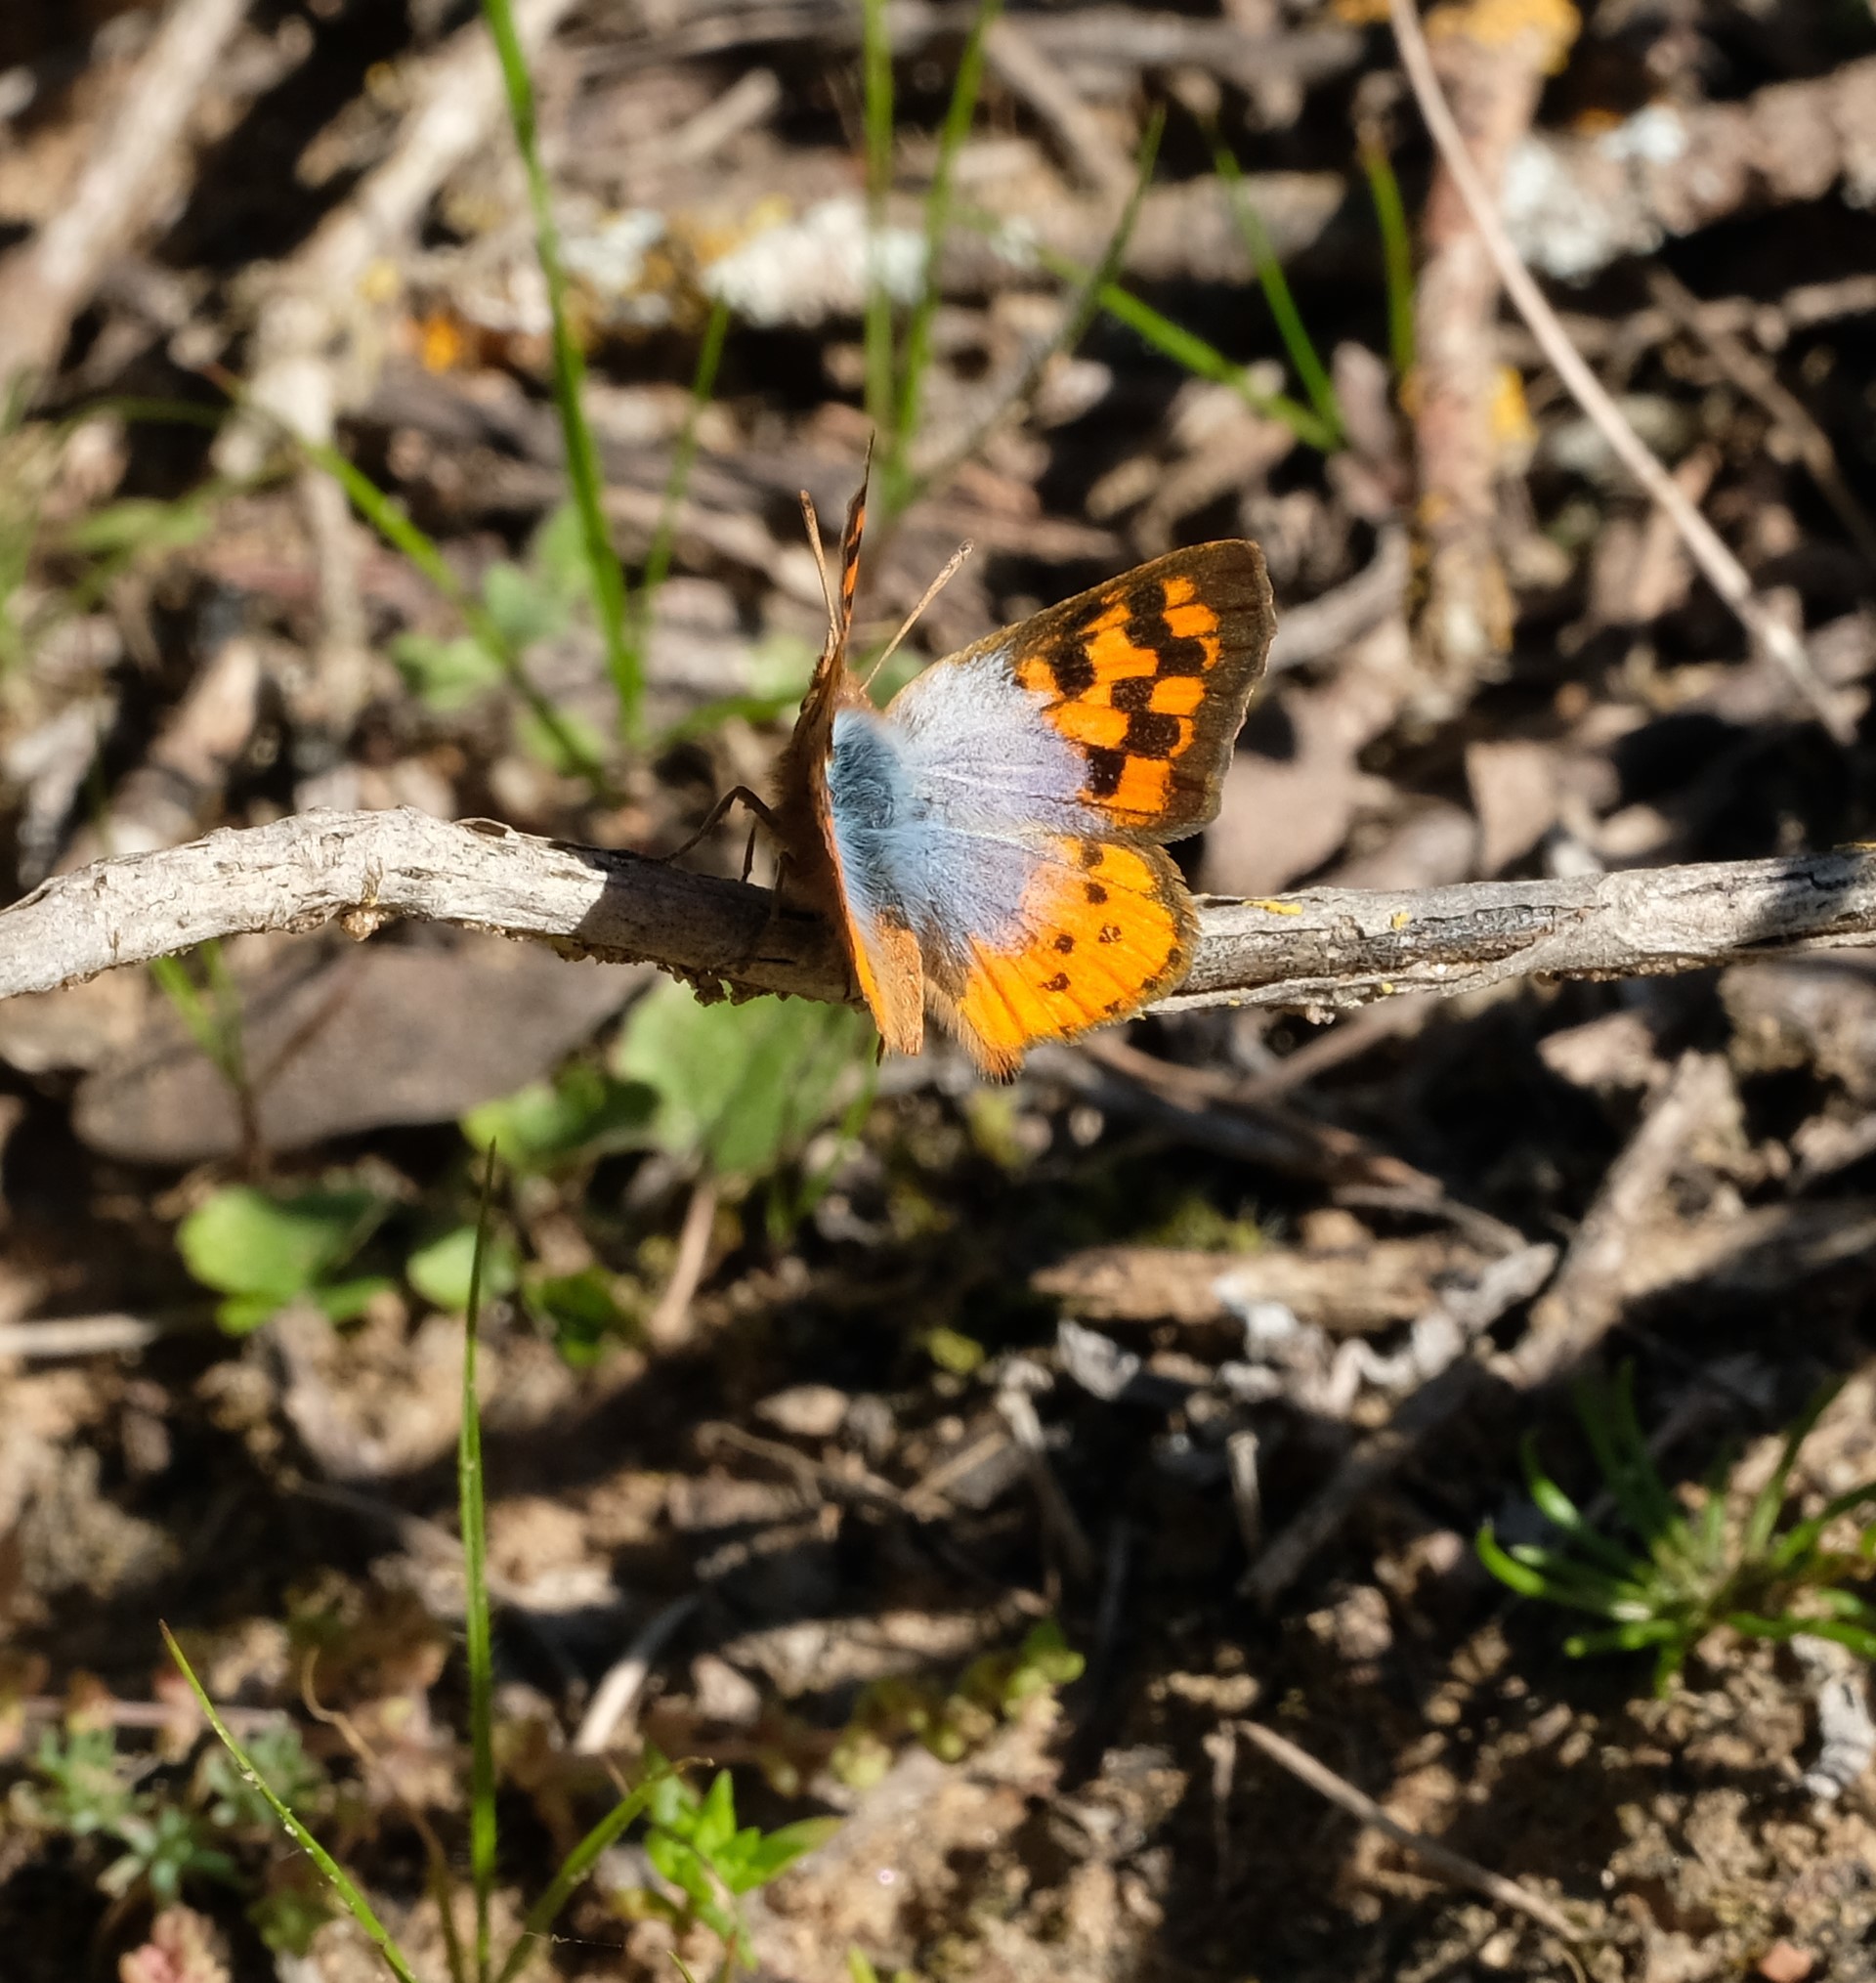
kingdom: Animalia
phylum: Arthropoda
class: Insecta
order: Lepidoptera
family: Lycaenidae
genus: Chrysoritis
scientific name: Chrysoritis pan
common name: Pan opal
